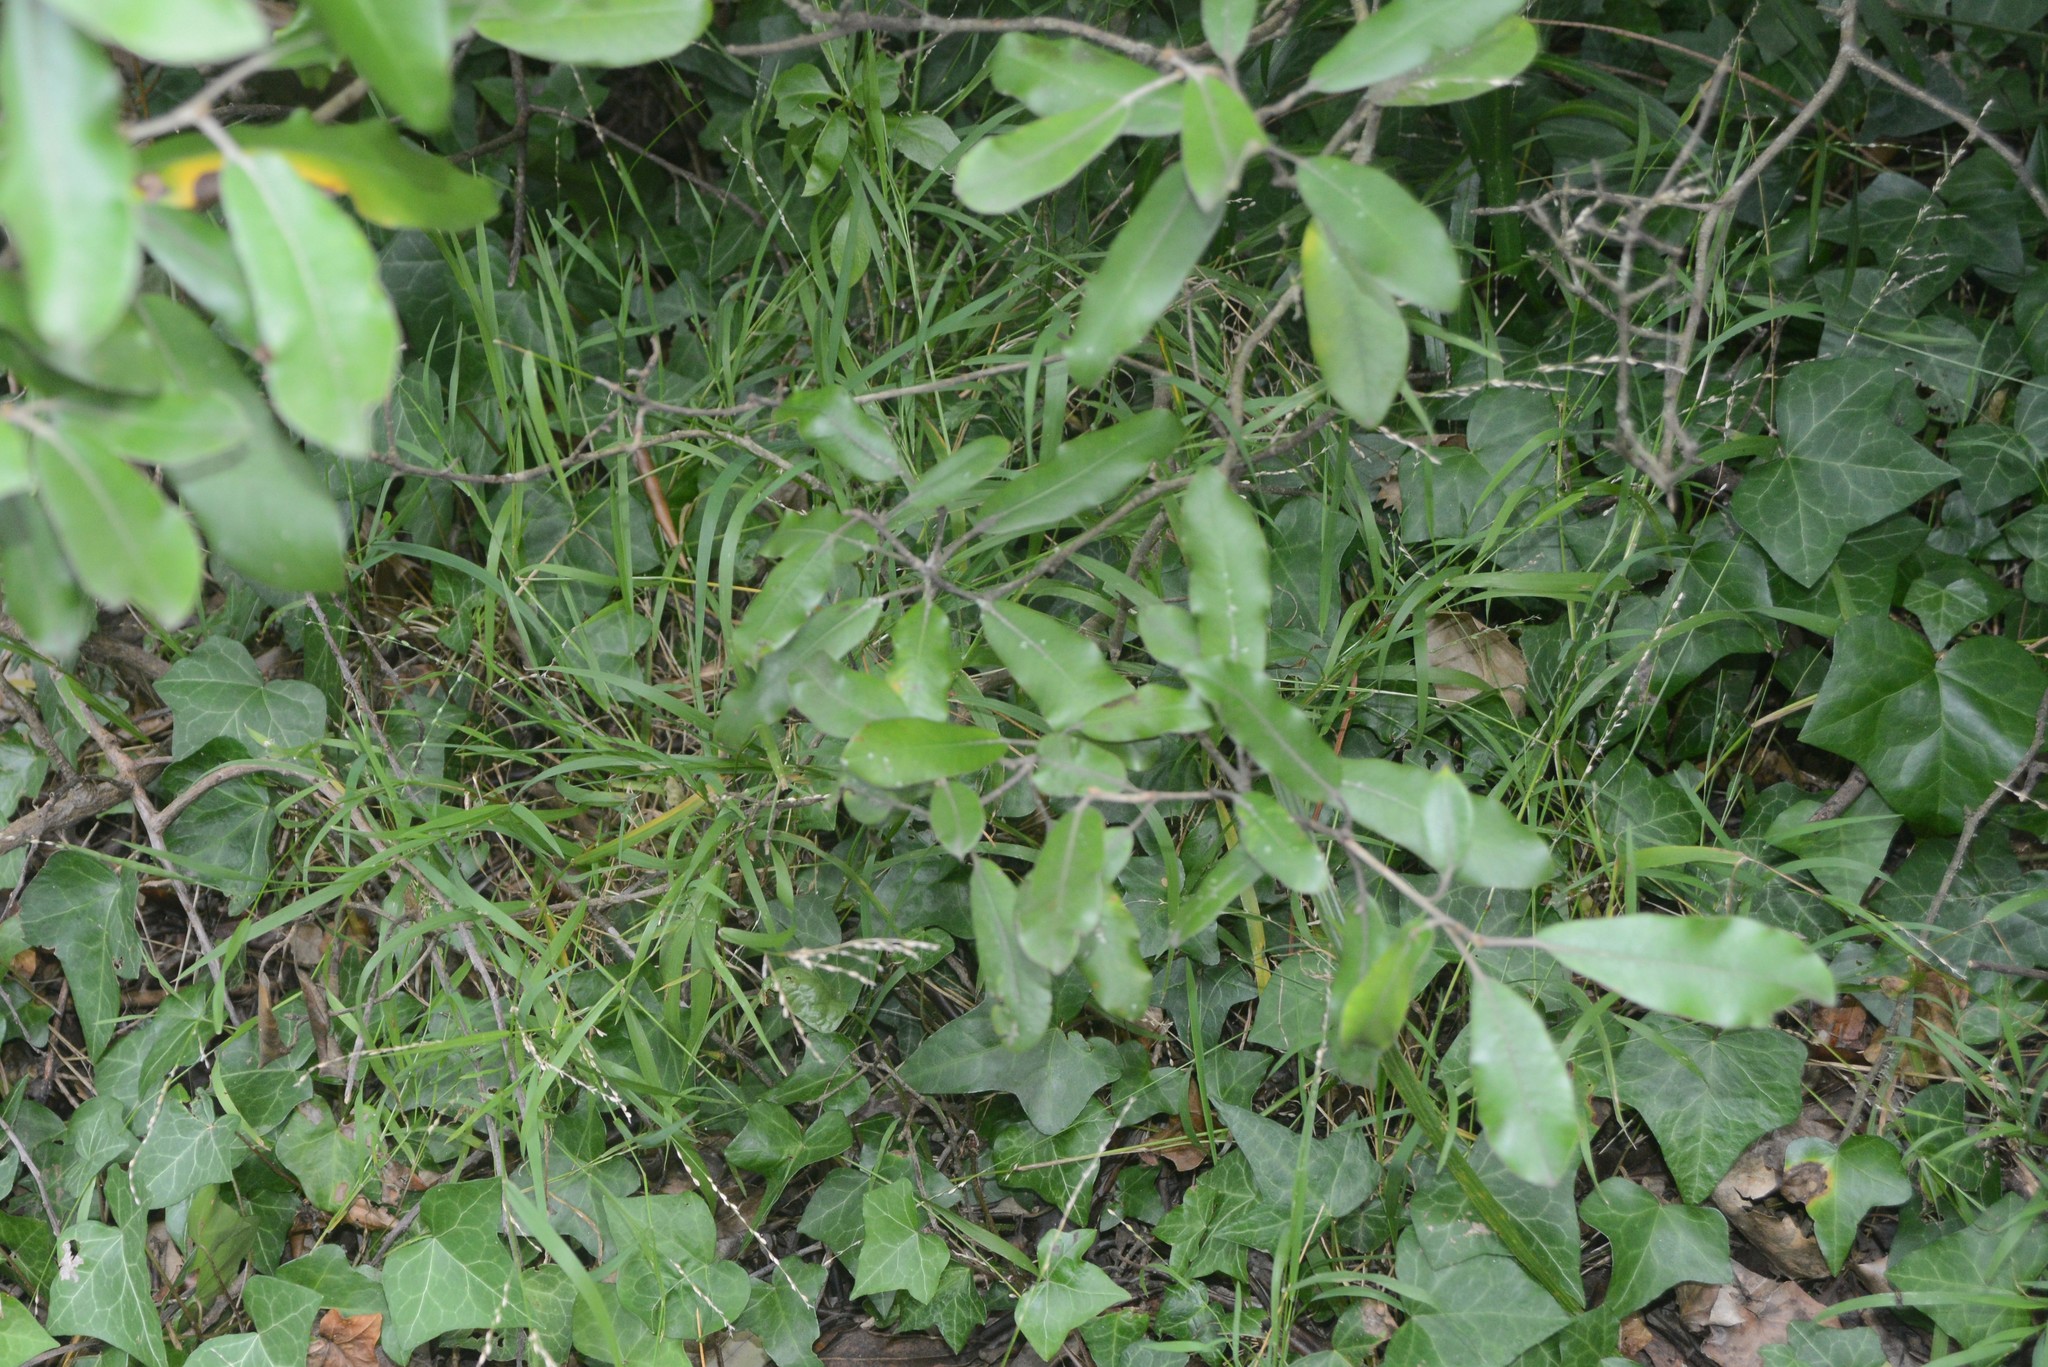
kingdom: Plantae
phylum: Tracheophyta
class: Liliopsida
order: Poales
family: Poaceae
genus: Ehrharta
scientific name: Ehrharta erecta
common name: Panic veldtgrass
